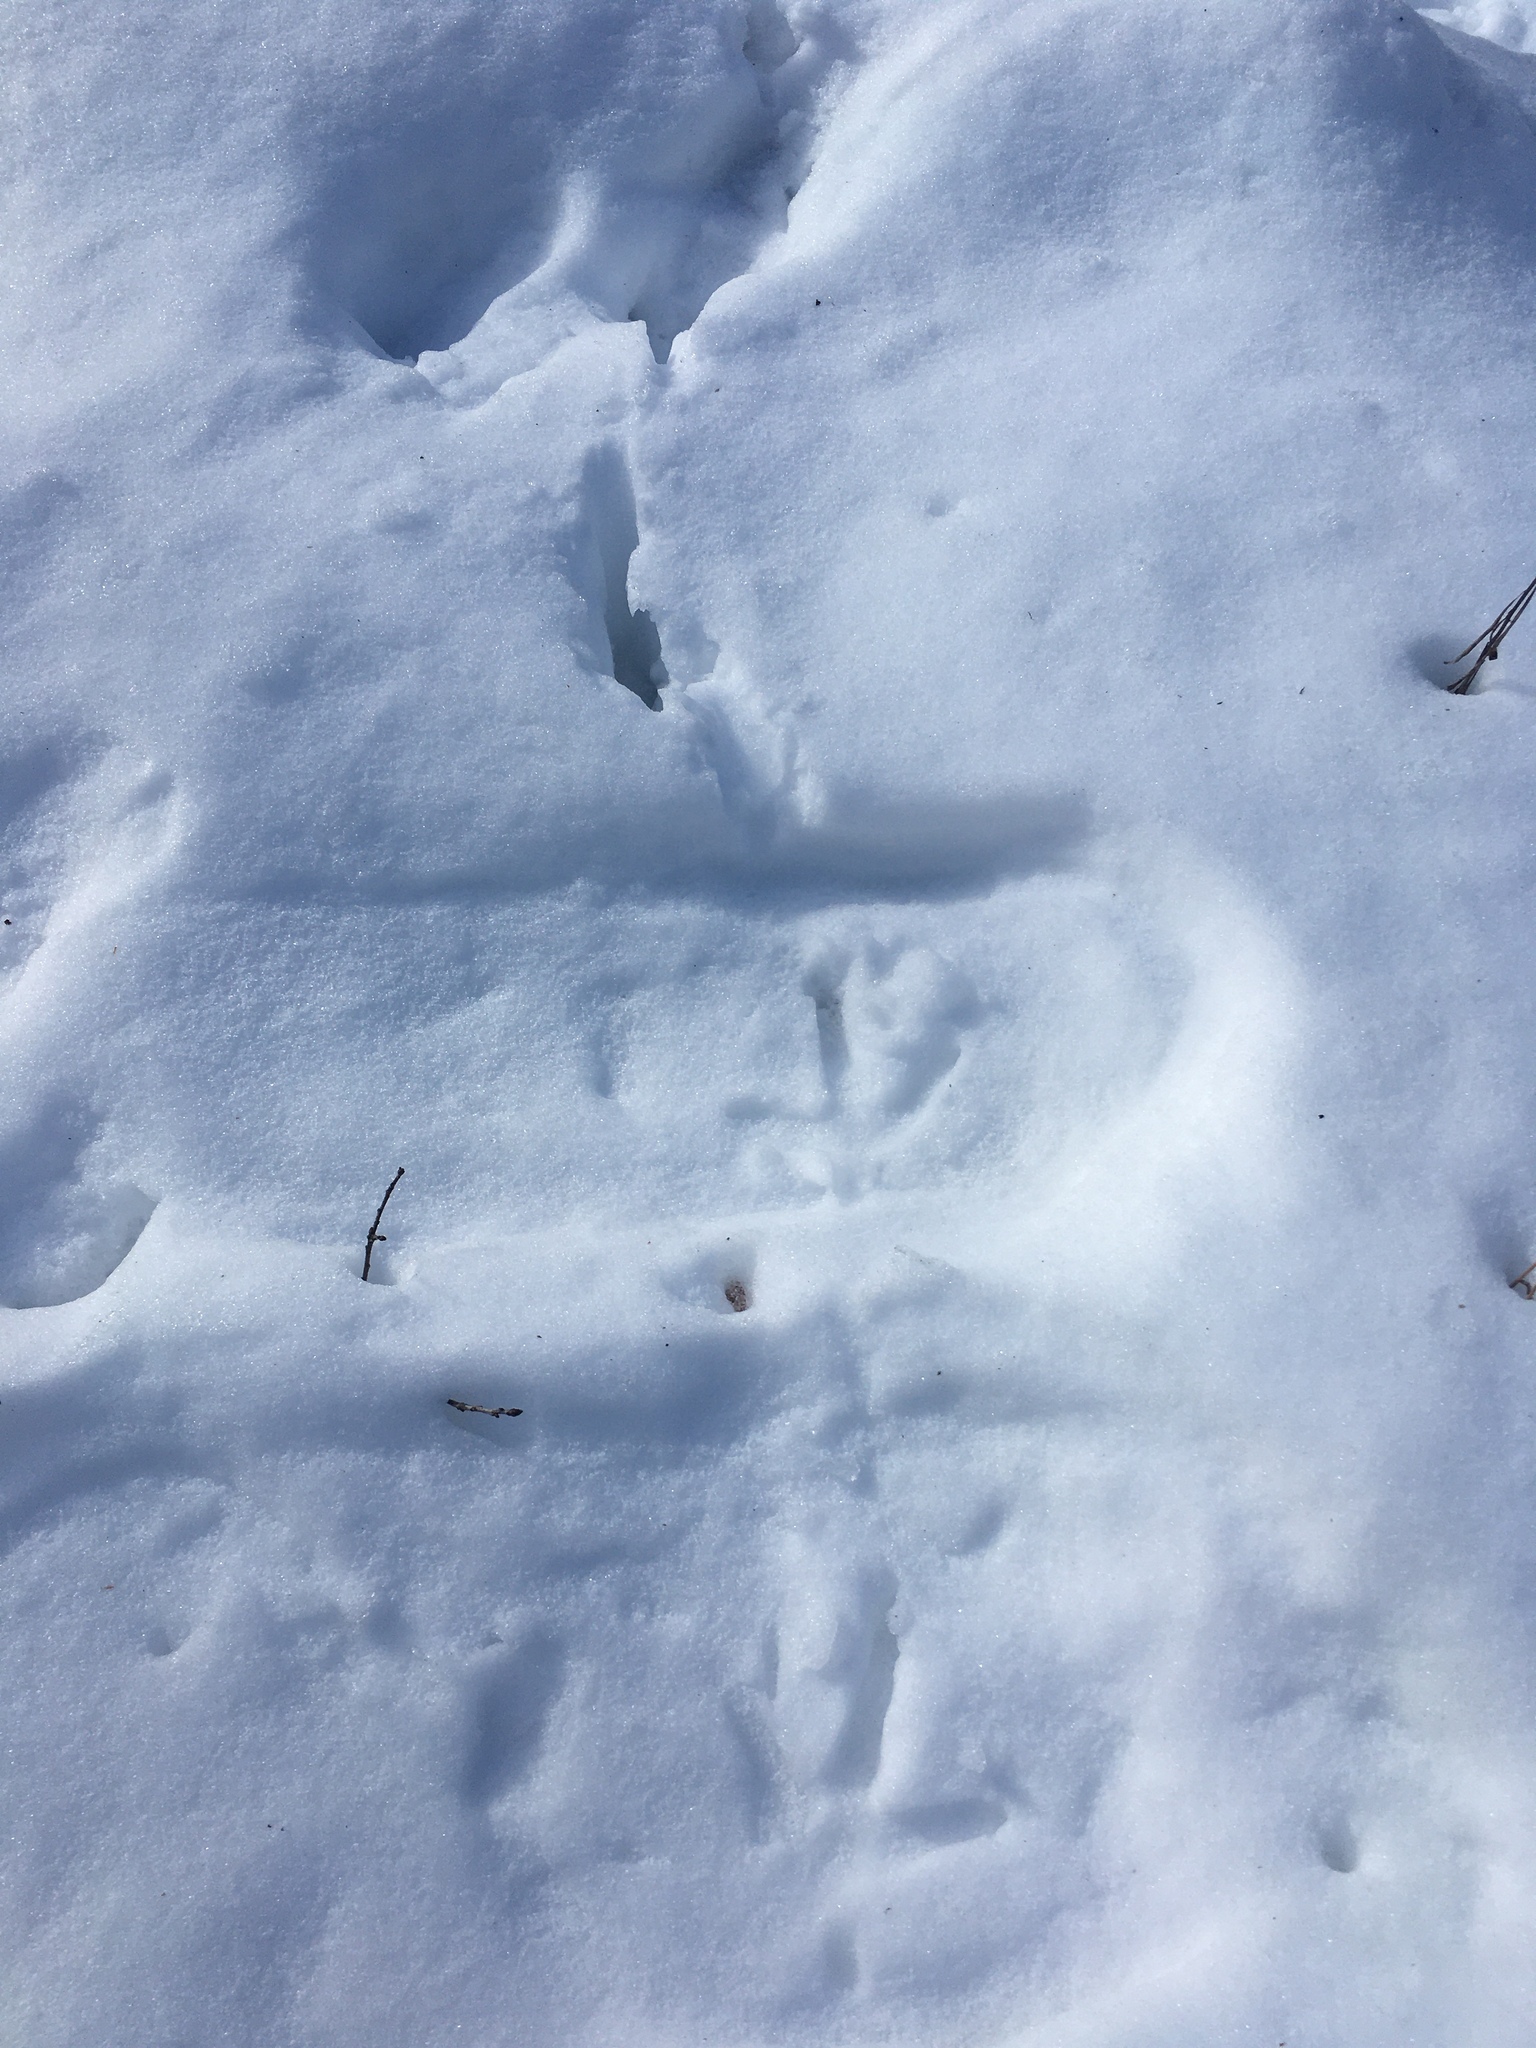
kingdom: Animalia
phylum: Chordata
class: Aves
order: Galliformes
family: Phasianidae
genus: Meleagris
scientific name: Meleagris gallopavo
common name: Wild turkey
